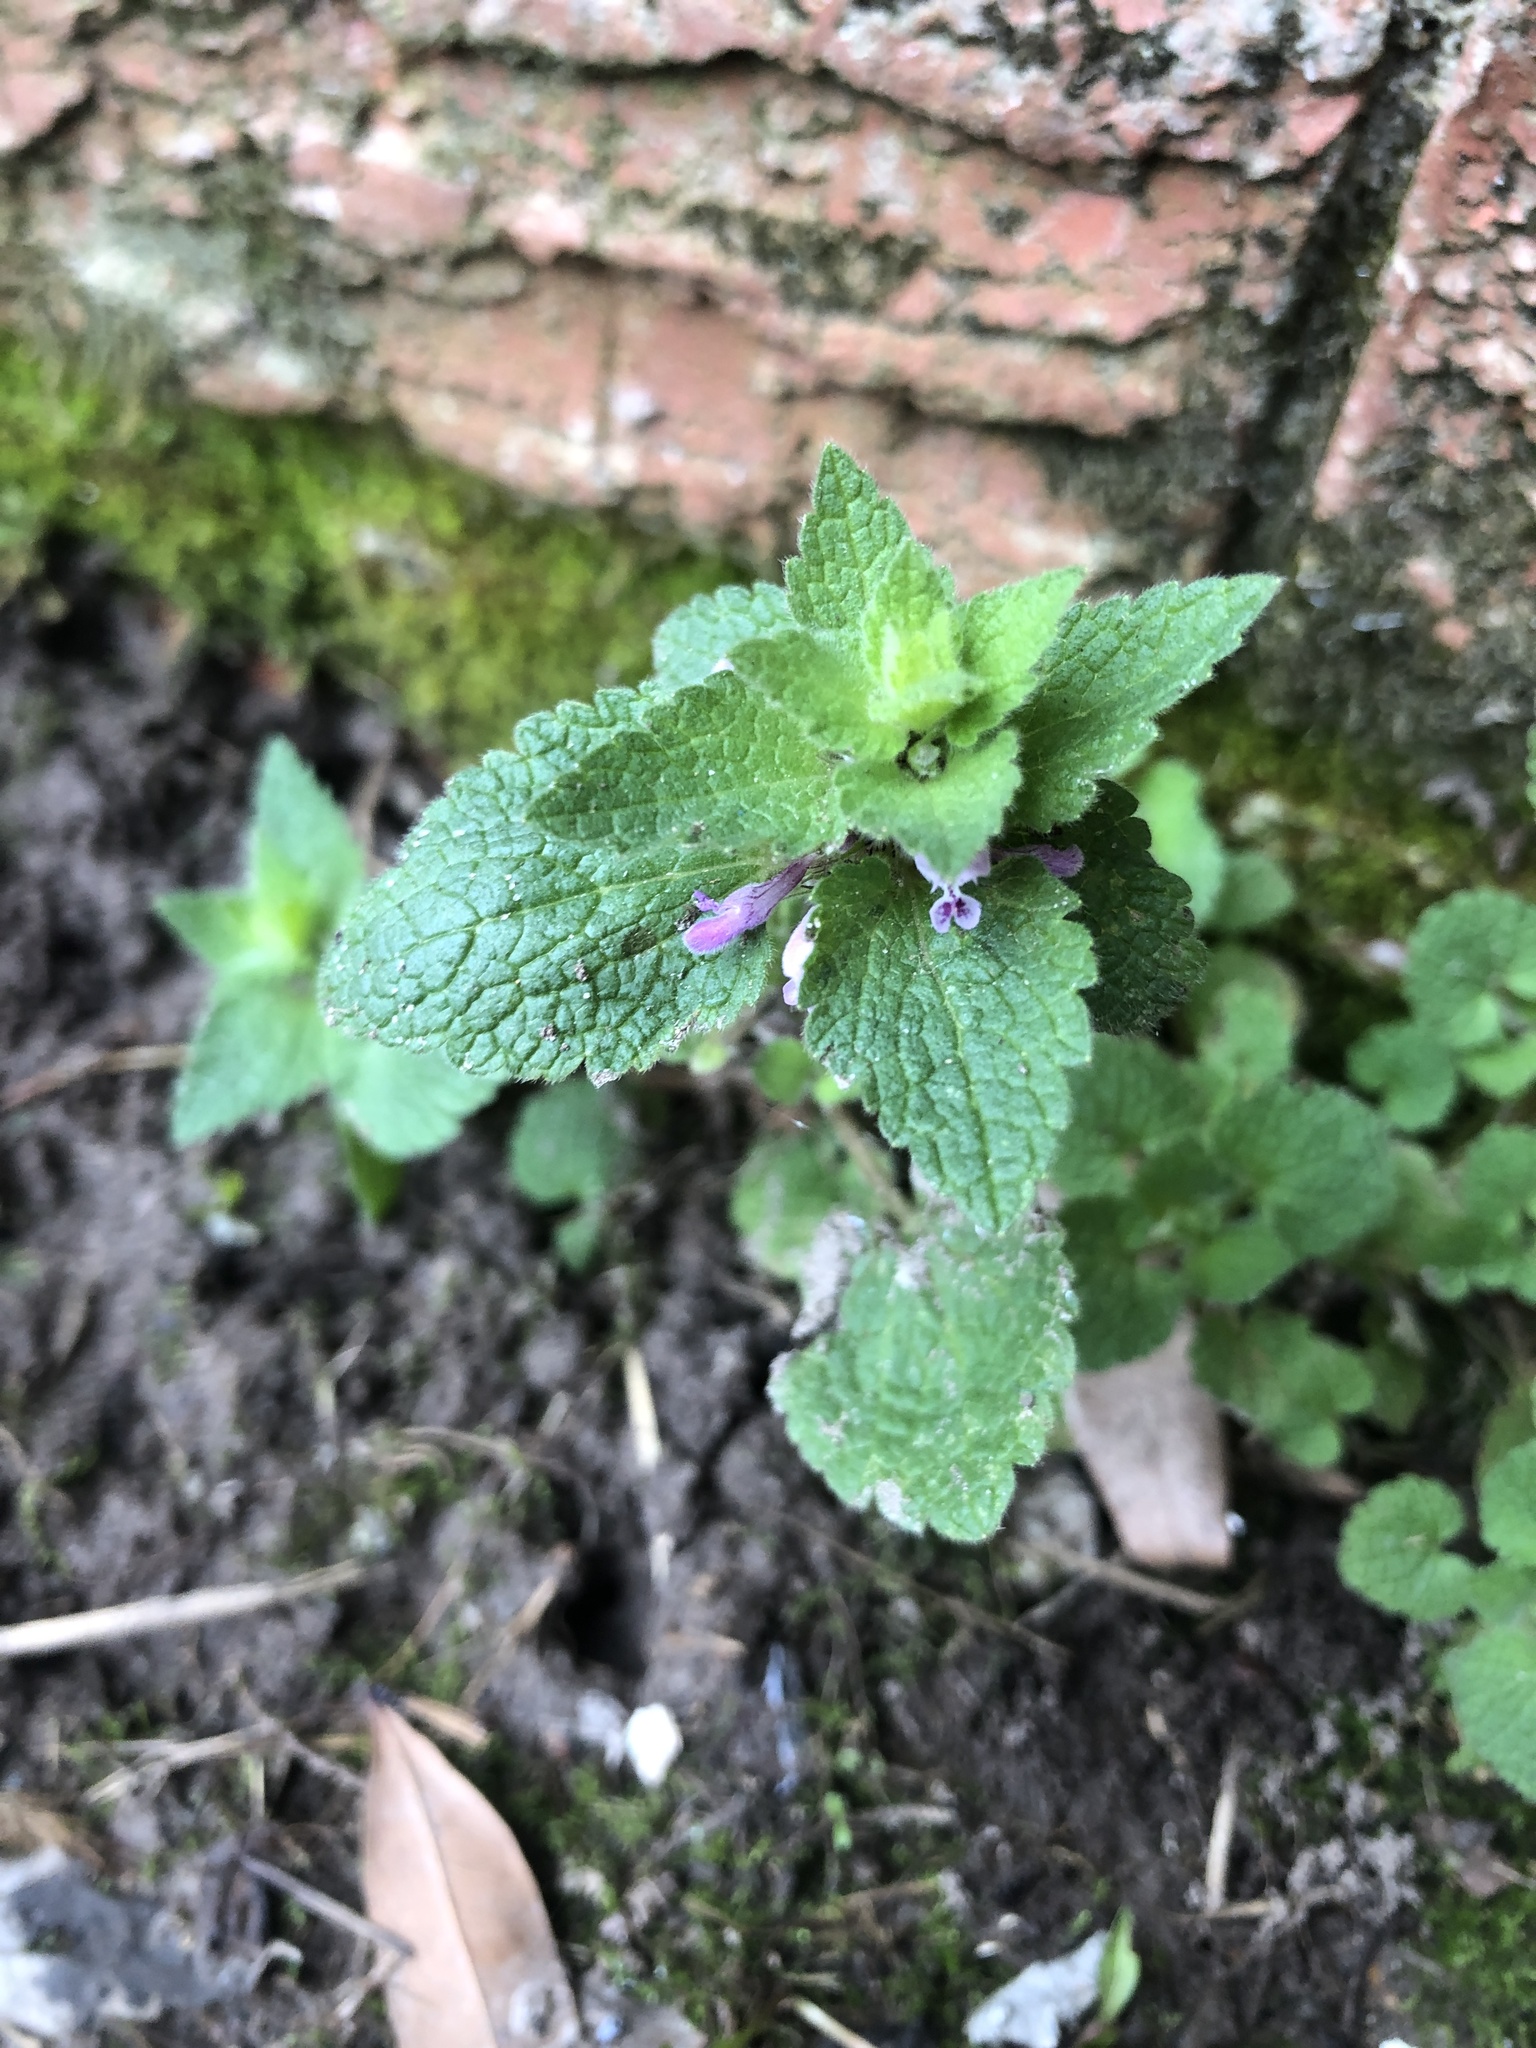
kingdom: Plantae
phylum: Tracheophyta
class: Magnoliopsida
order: Lamiales
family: Lamiaceae
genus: Lamium
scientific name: Lamium purpureum
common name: Red dead-nettle
